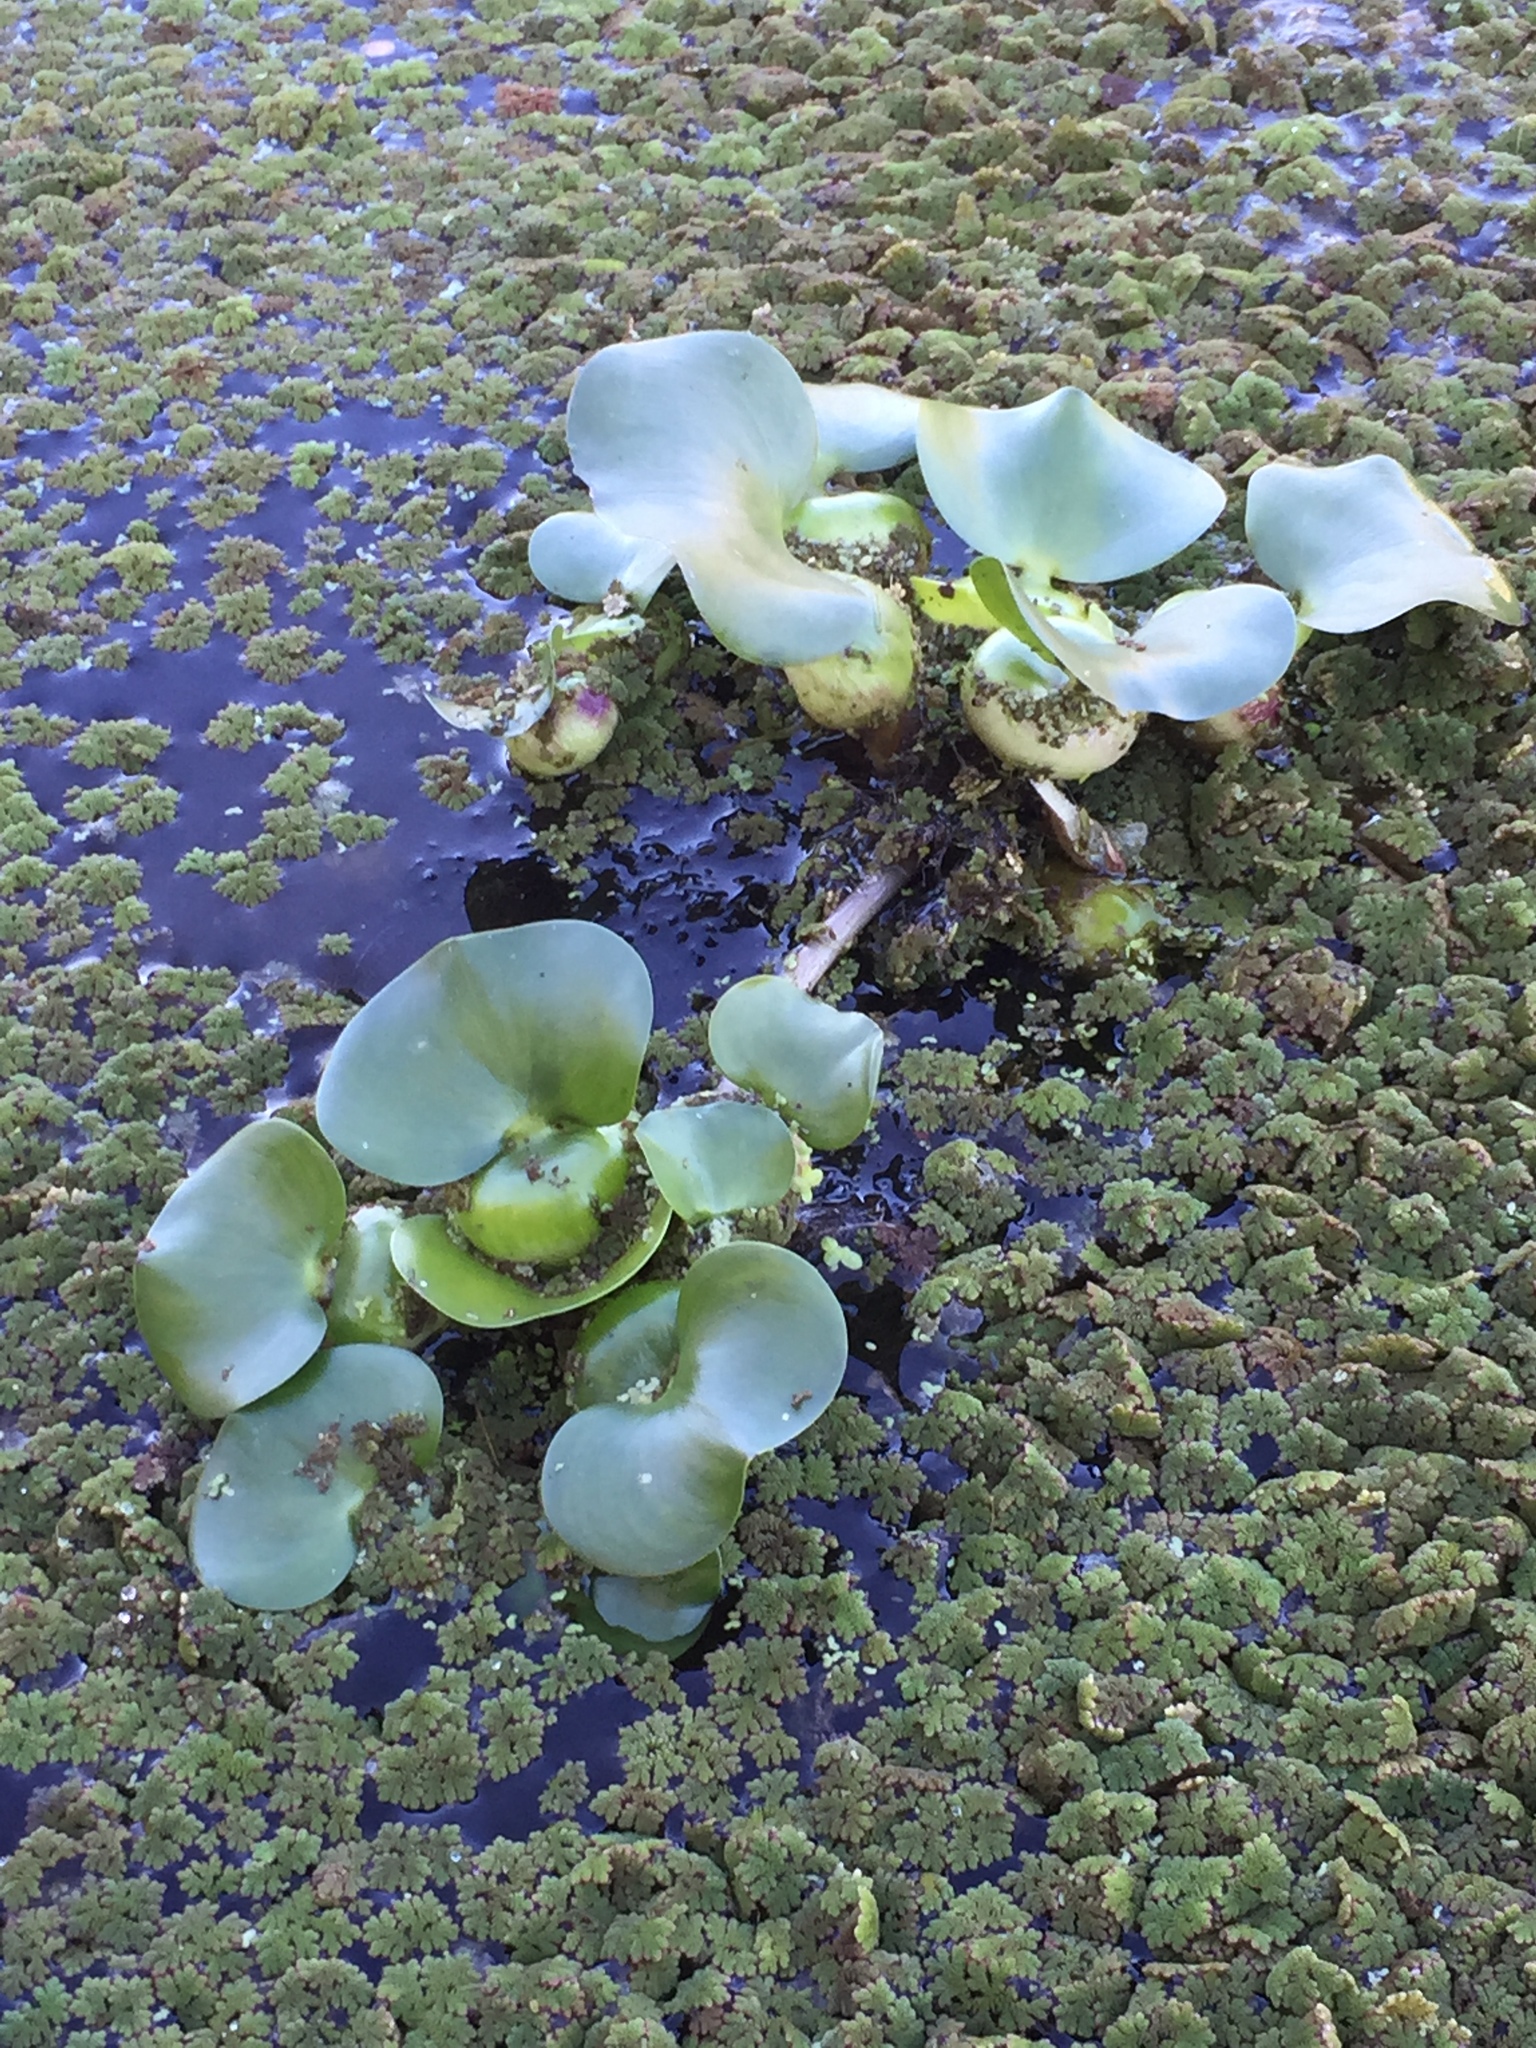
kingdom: Plantae
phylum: Tracheophyta
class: Liliopsida
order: Commelinales
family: Pontederiaceae
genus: Pontederia
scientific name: Pontederia crassipes
